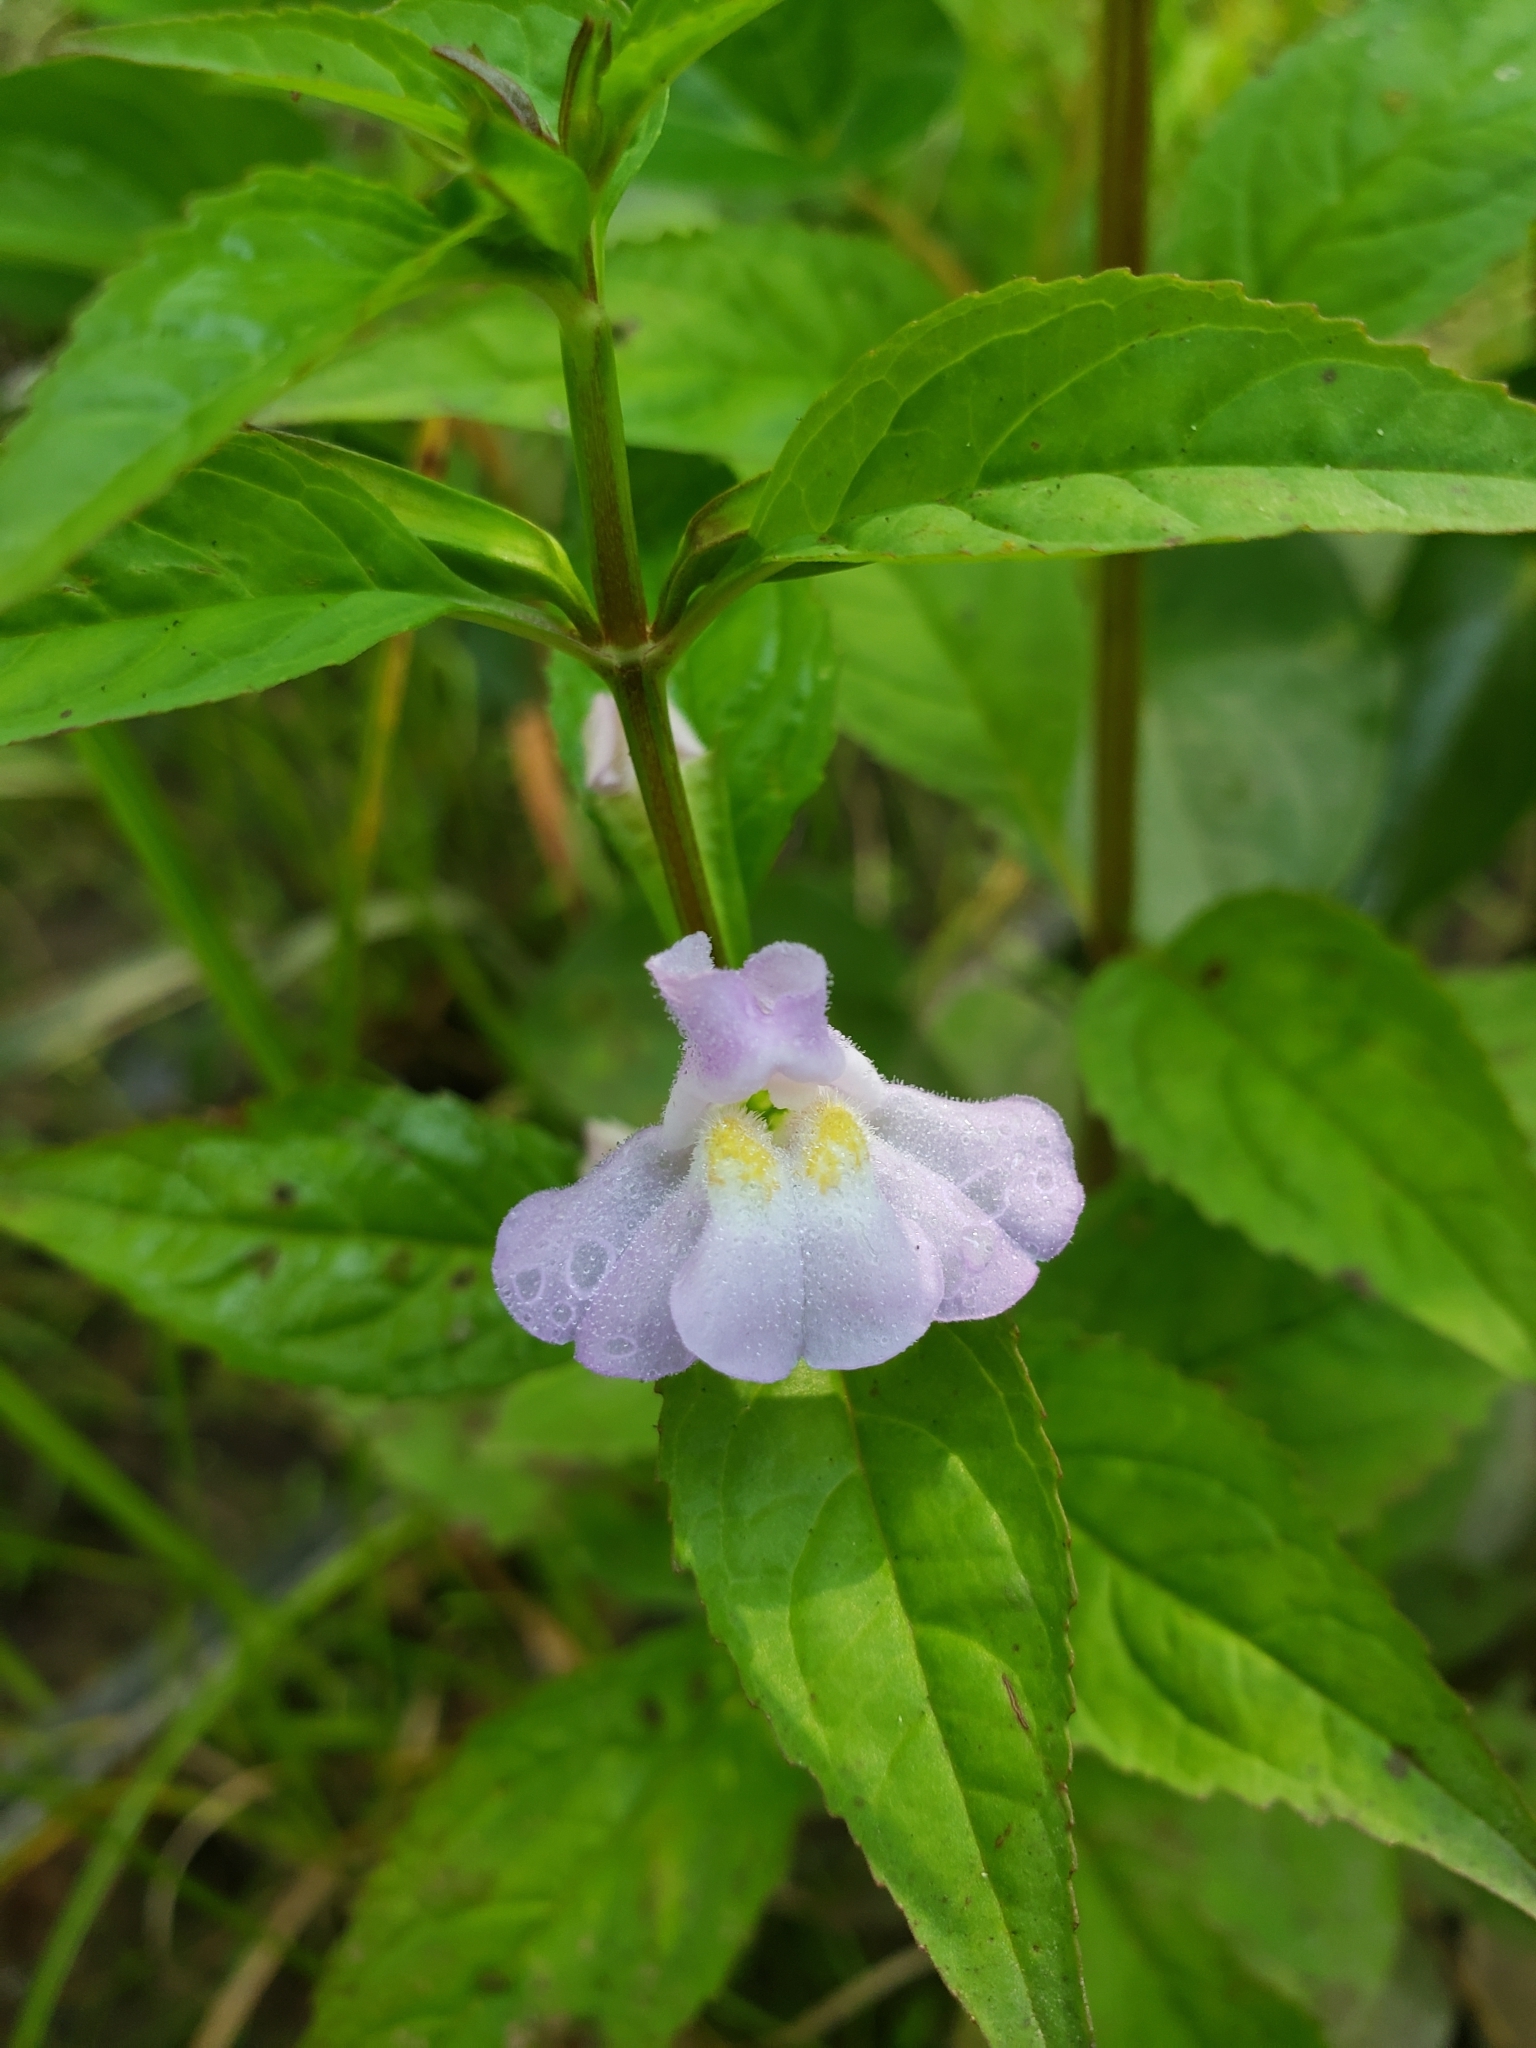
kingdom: Plantae
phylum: Tracheophyta
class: Magnoliopsida
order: Lamiales
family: Phrymaceae
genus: Mimulus
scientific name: Mimulus alatus
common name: Sharp-wing monkey-flower
